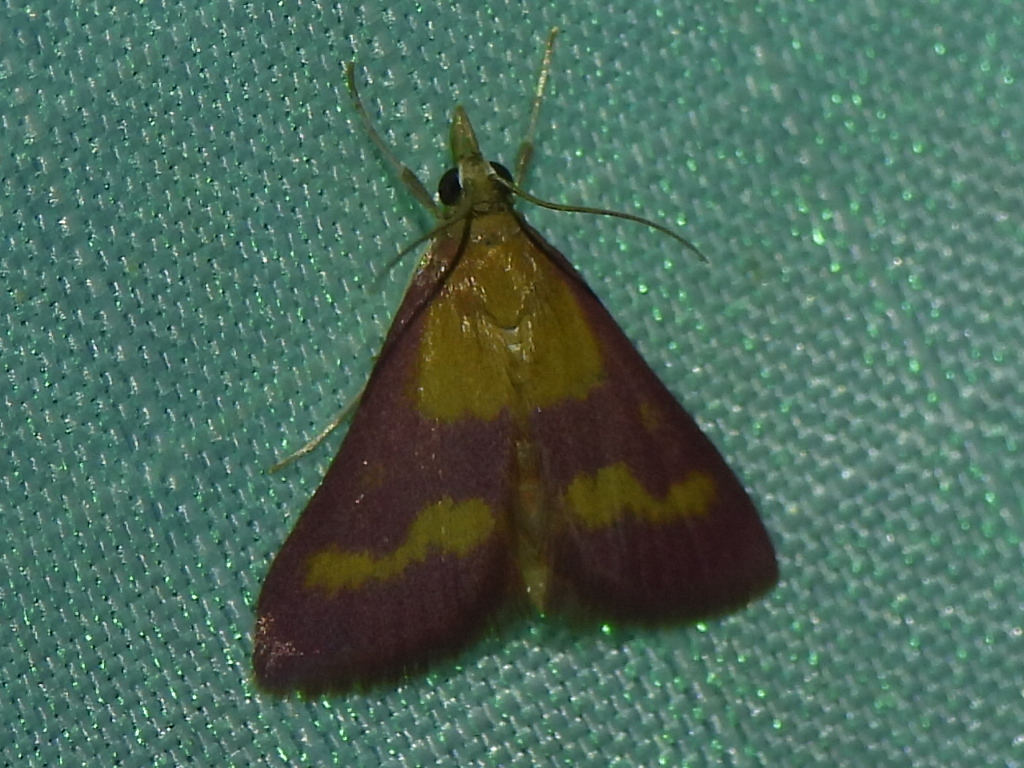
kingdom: Animalia
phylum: Arthropoda
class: Insecta
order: Lepidoptera
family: Crambidae
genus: Pyrausta
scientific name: Pyrausta laticlavia
